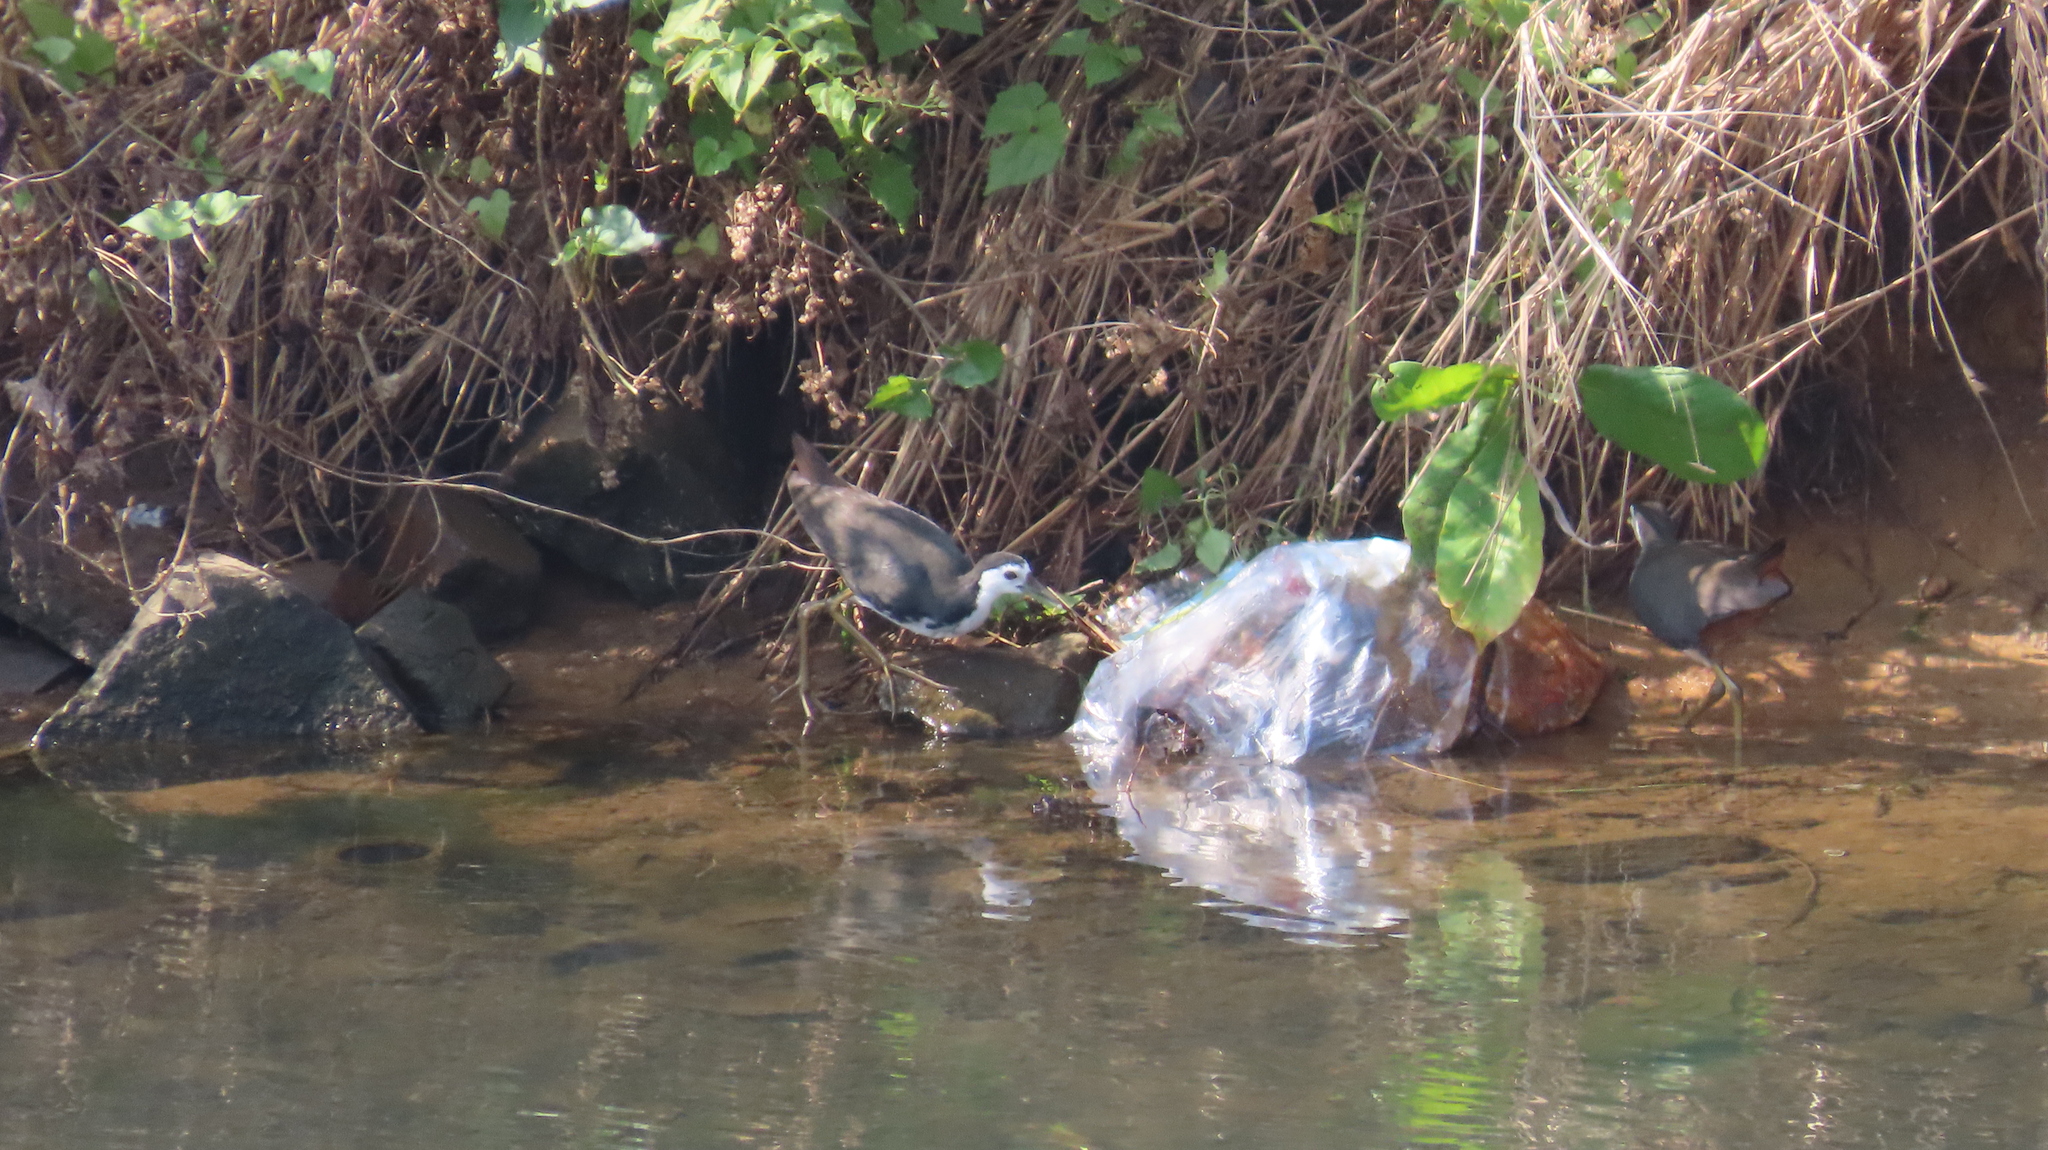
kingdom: Animalia
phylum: Chordata
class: Aves
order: Gruiformes
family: Rallidae
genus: Amaurornis
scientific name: Amaurornis phoenicurus
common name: White-breasted waterhen
